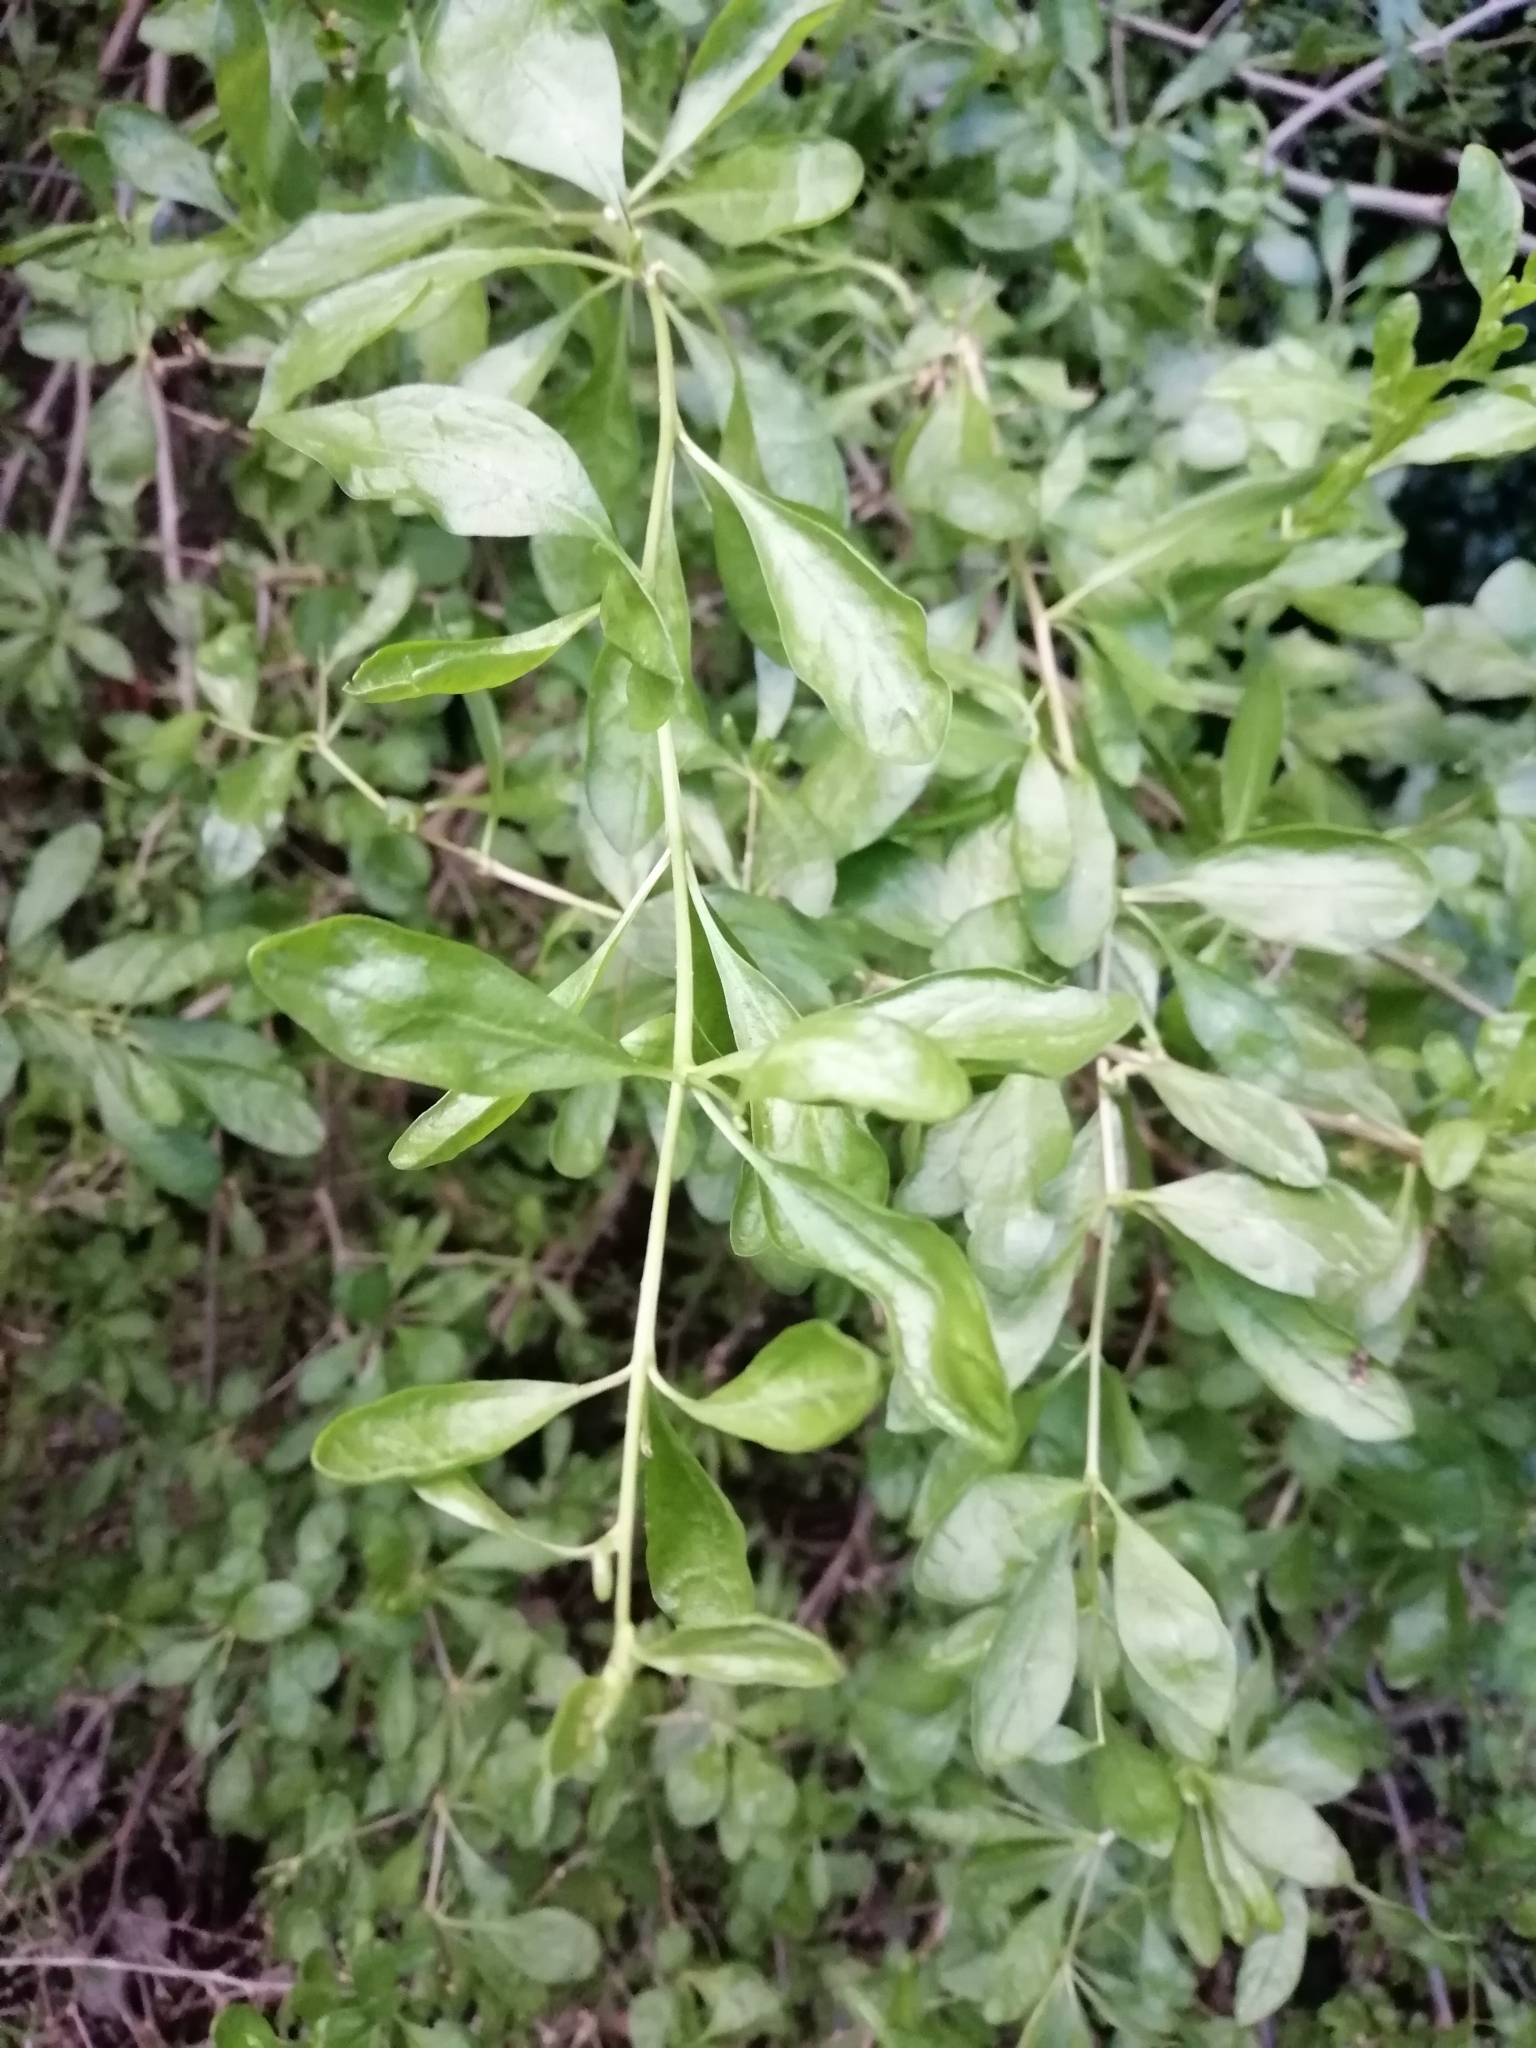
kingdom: Plantae
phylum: Tracheophyta
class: Magnoliopsida
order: Solanales
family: Solanaceae
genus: Lycium
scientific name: Lycium ferocissimum
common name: African boxthorn
